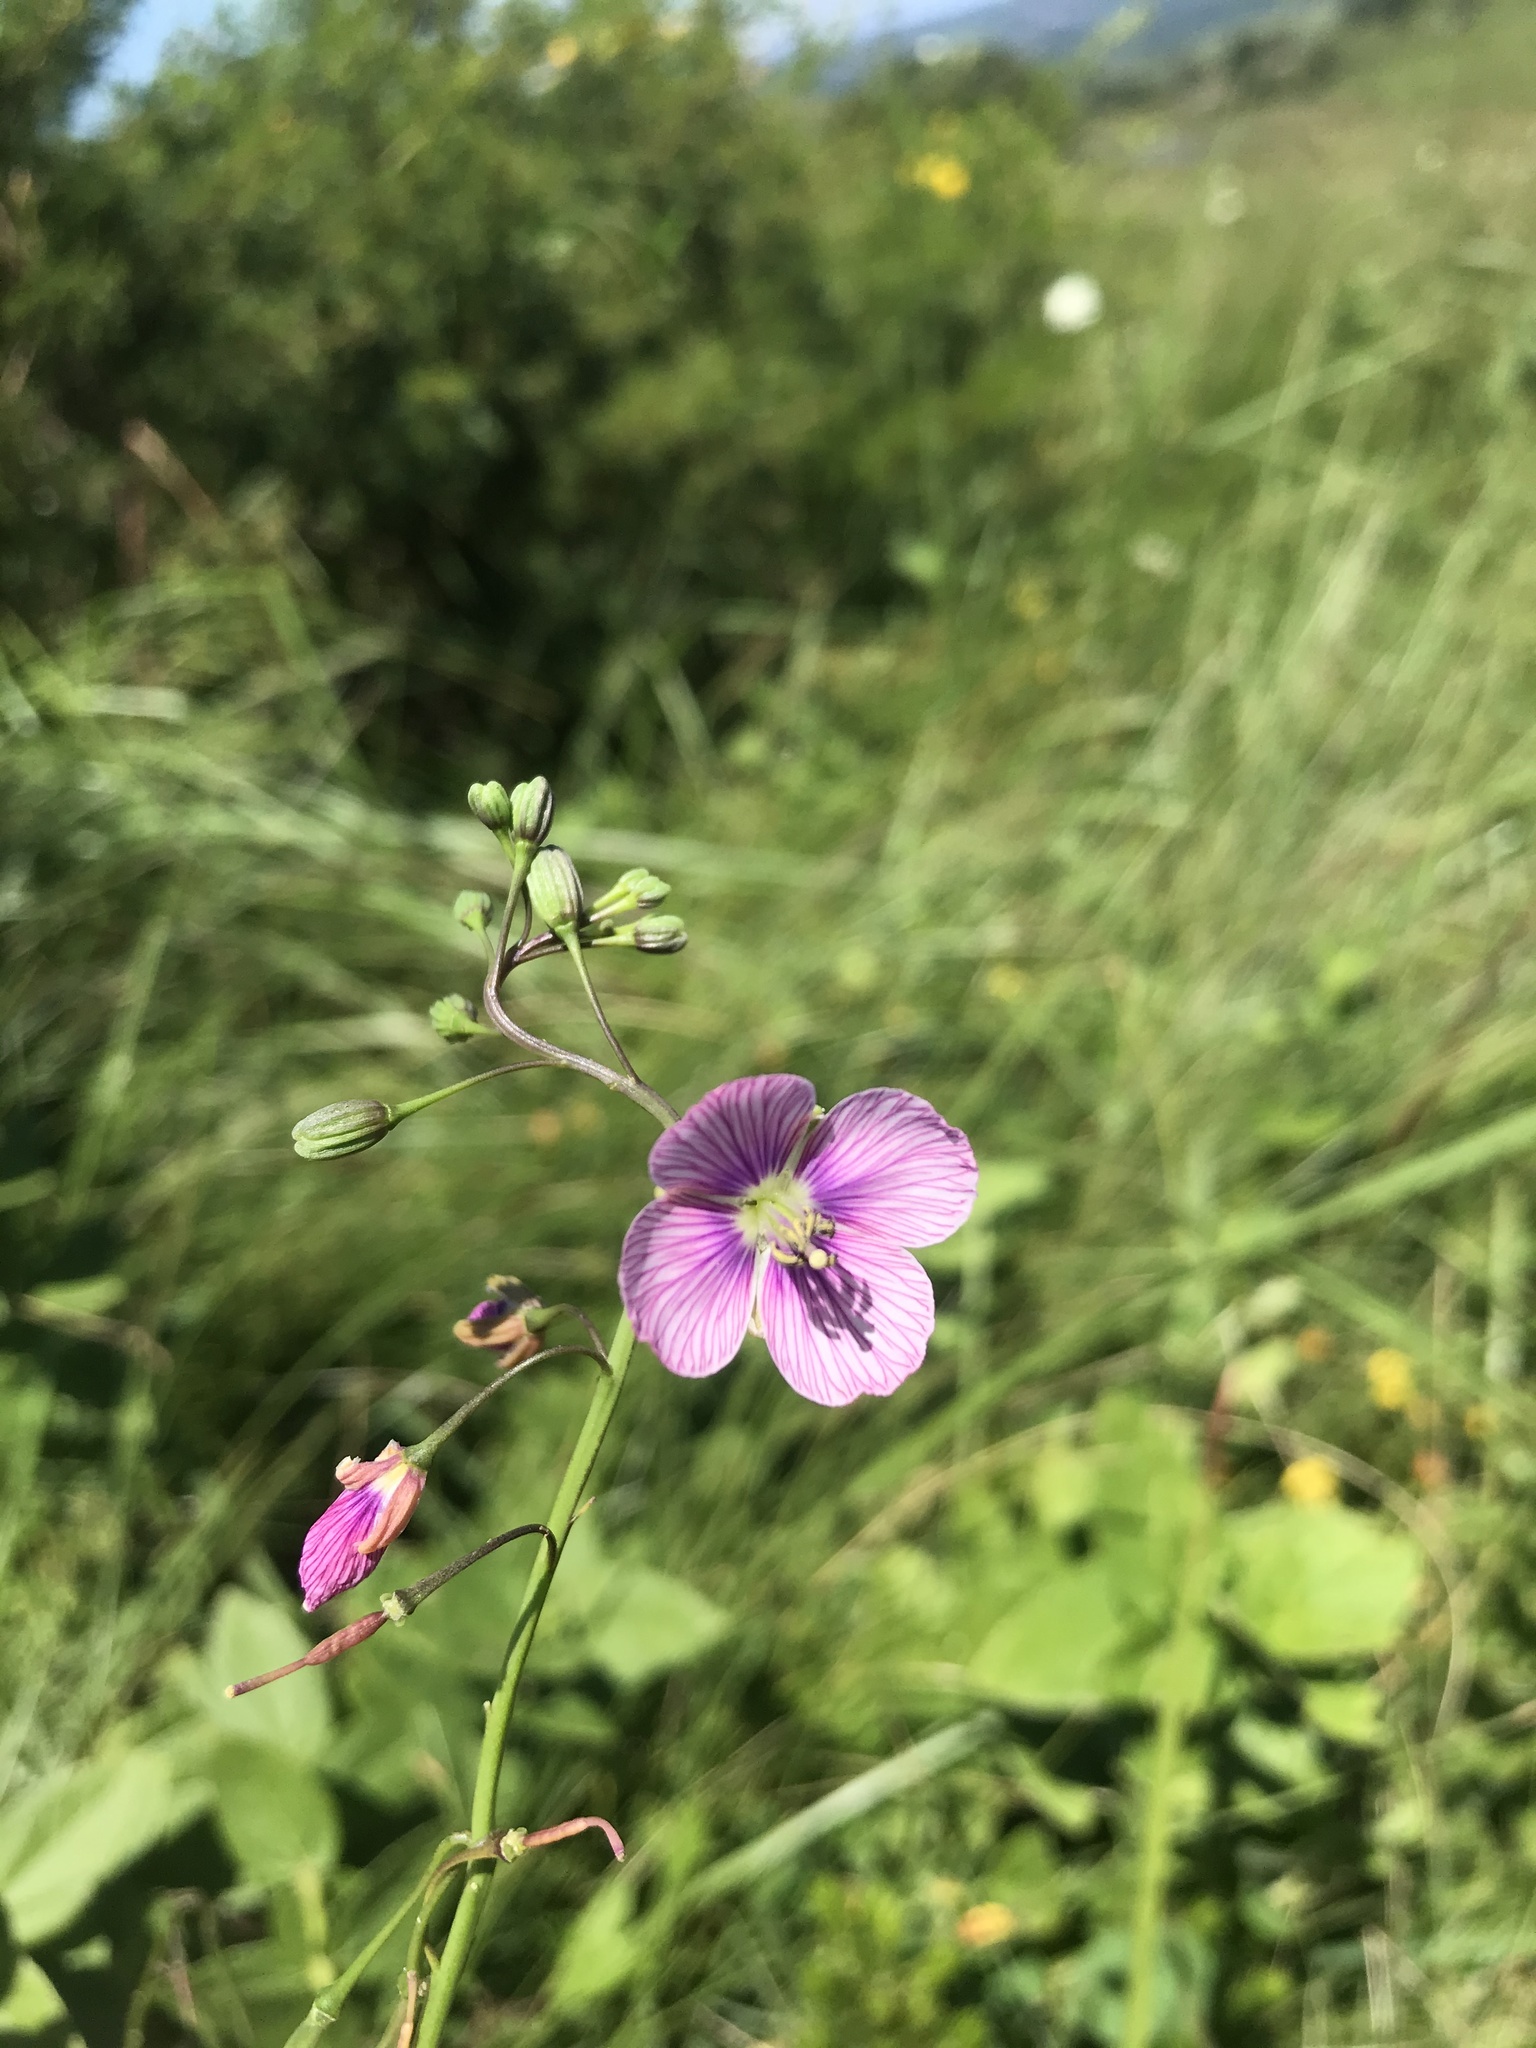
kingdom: Plantae
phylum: Tracheophyta
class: Magnoliopsida
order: Brassicales
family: Brassicaceae
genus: Heliophila
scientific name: Heliophila rigidiuscula
